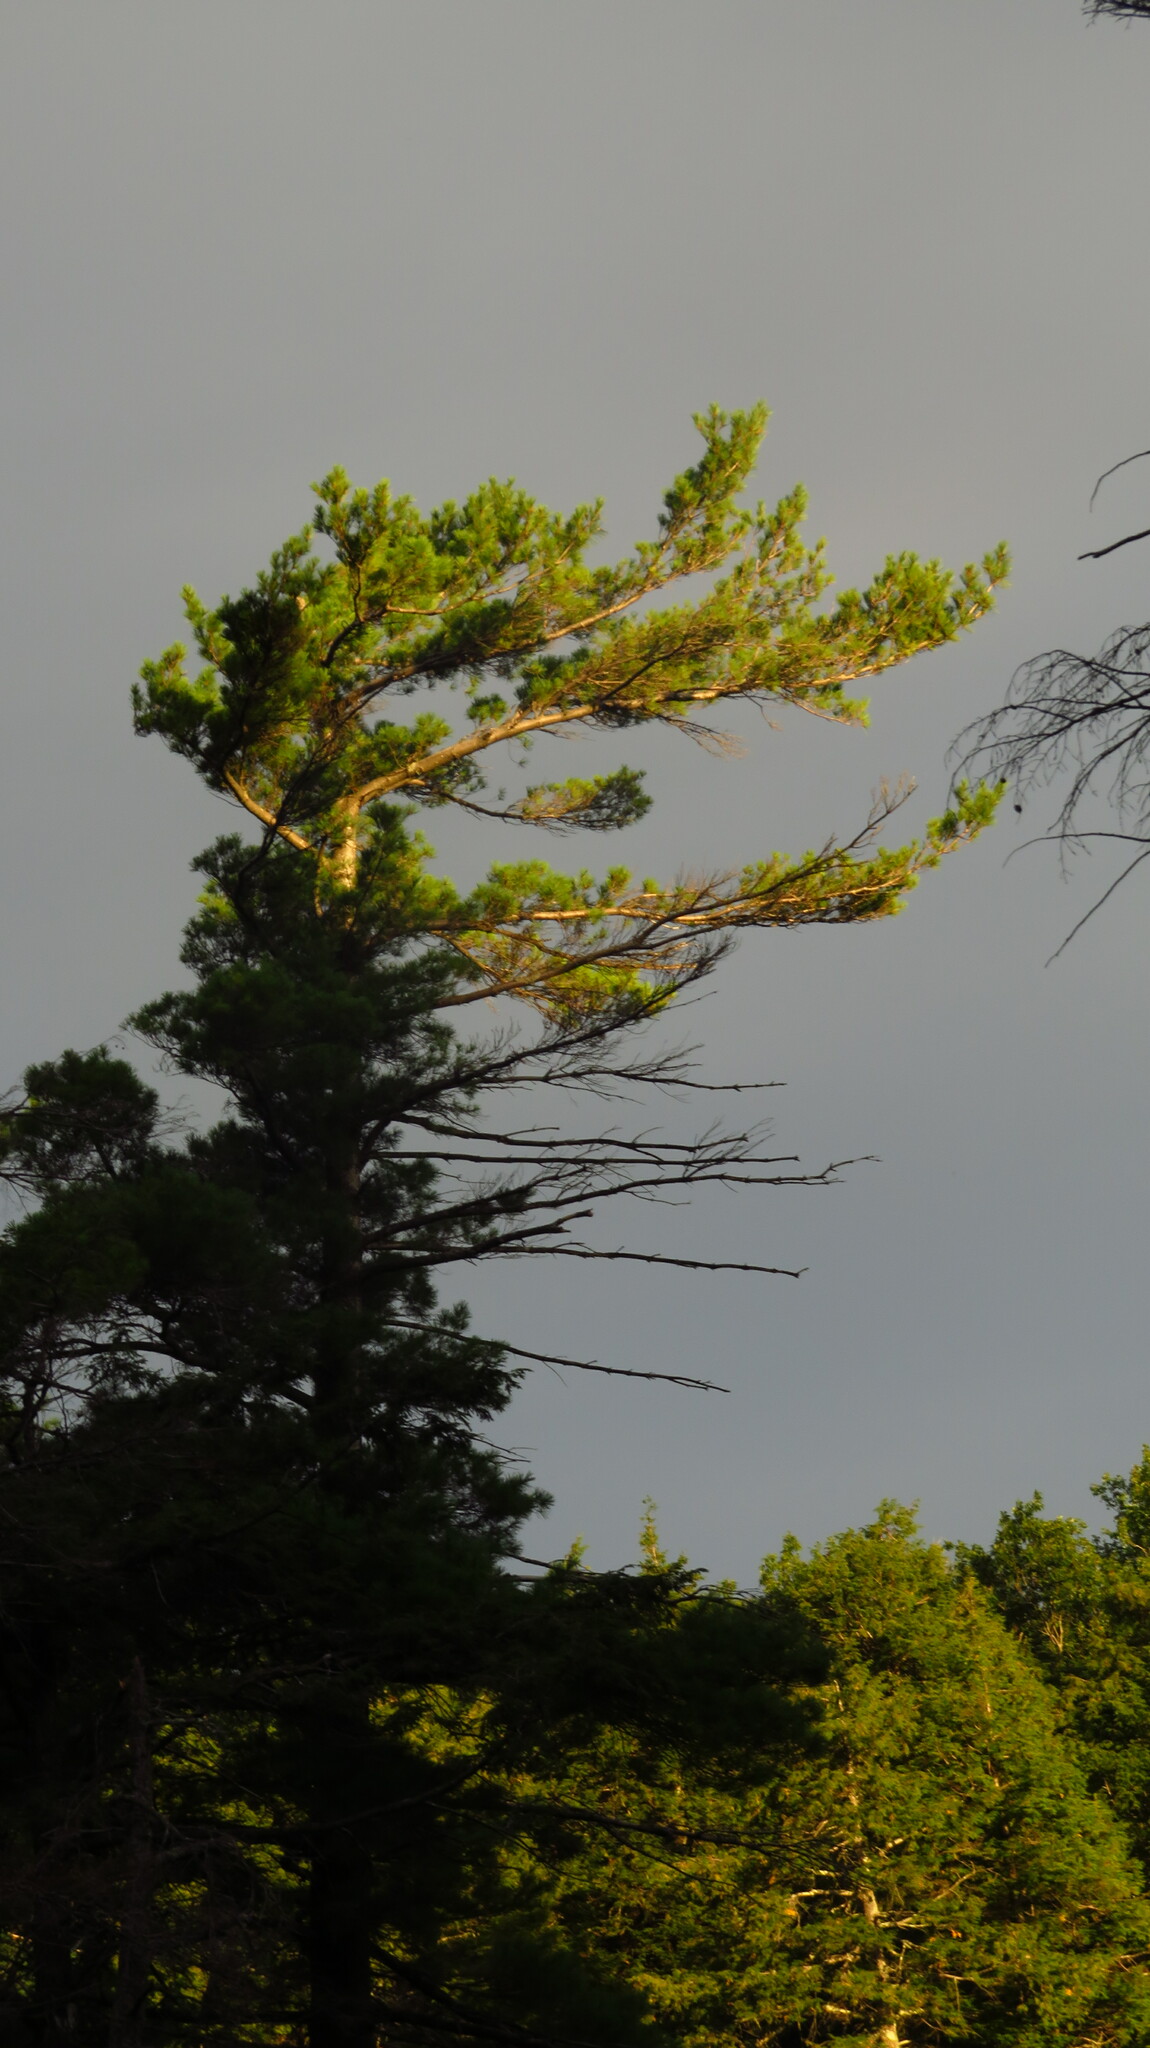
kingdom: Plantae
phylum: Tracheophyta
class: Pinopsida
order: Pinales
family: Pinaceae
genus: Pinus
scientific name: Pinus strobus
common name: Weymouth pine
